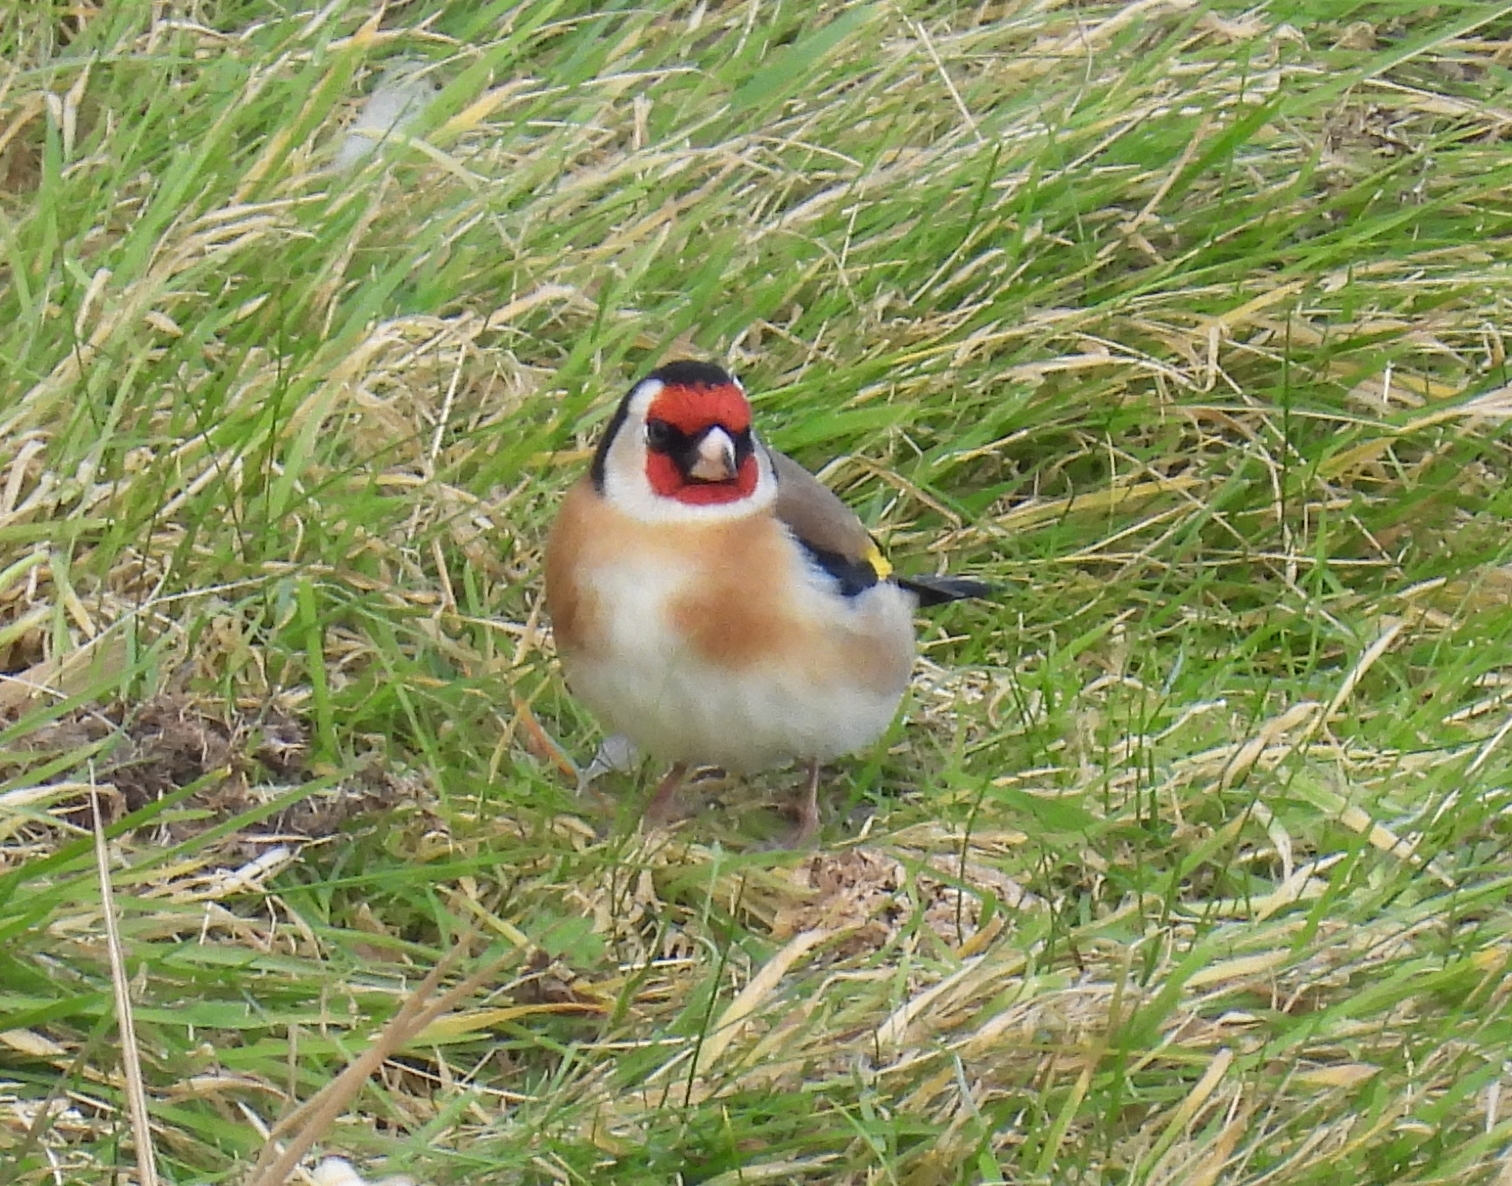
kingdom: Animalia
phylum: Chordata
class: Aves
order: Passeriformes
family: Fringillidae
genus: Carduelis
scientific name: Carduelis carduelis
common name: European goldfinch
